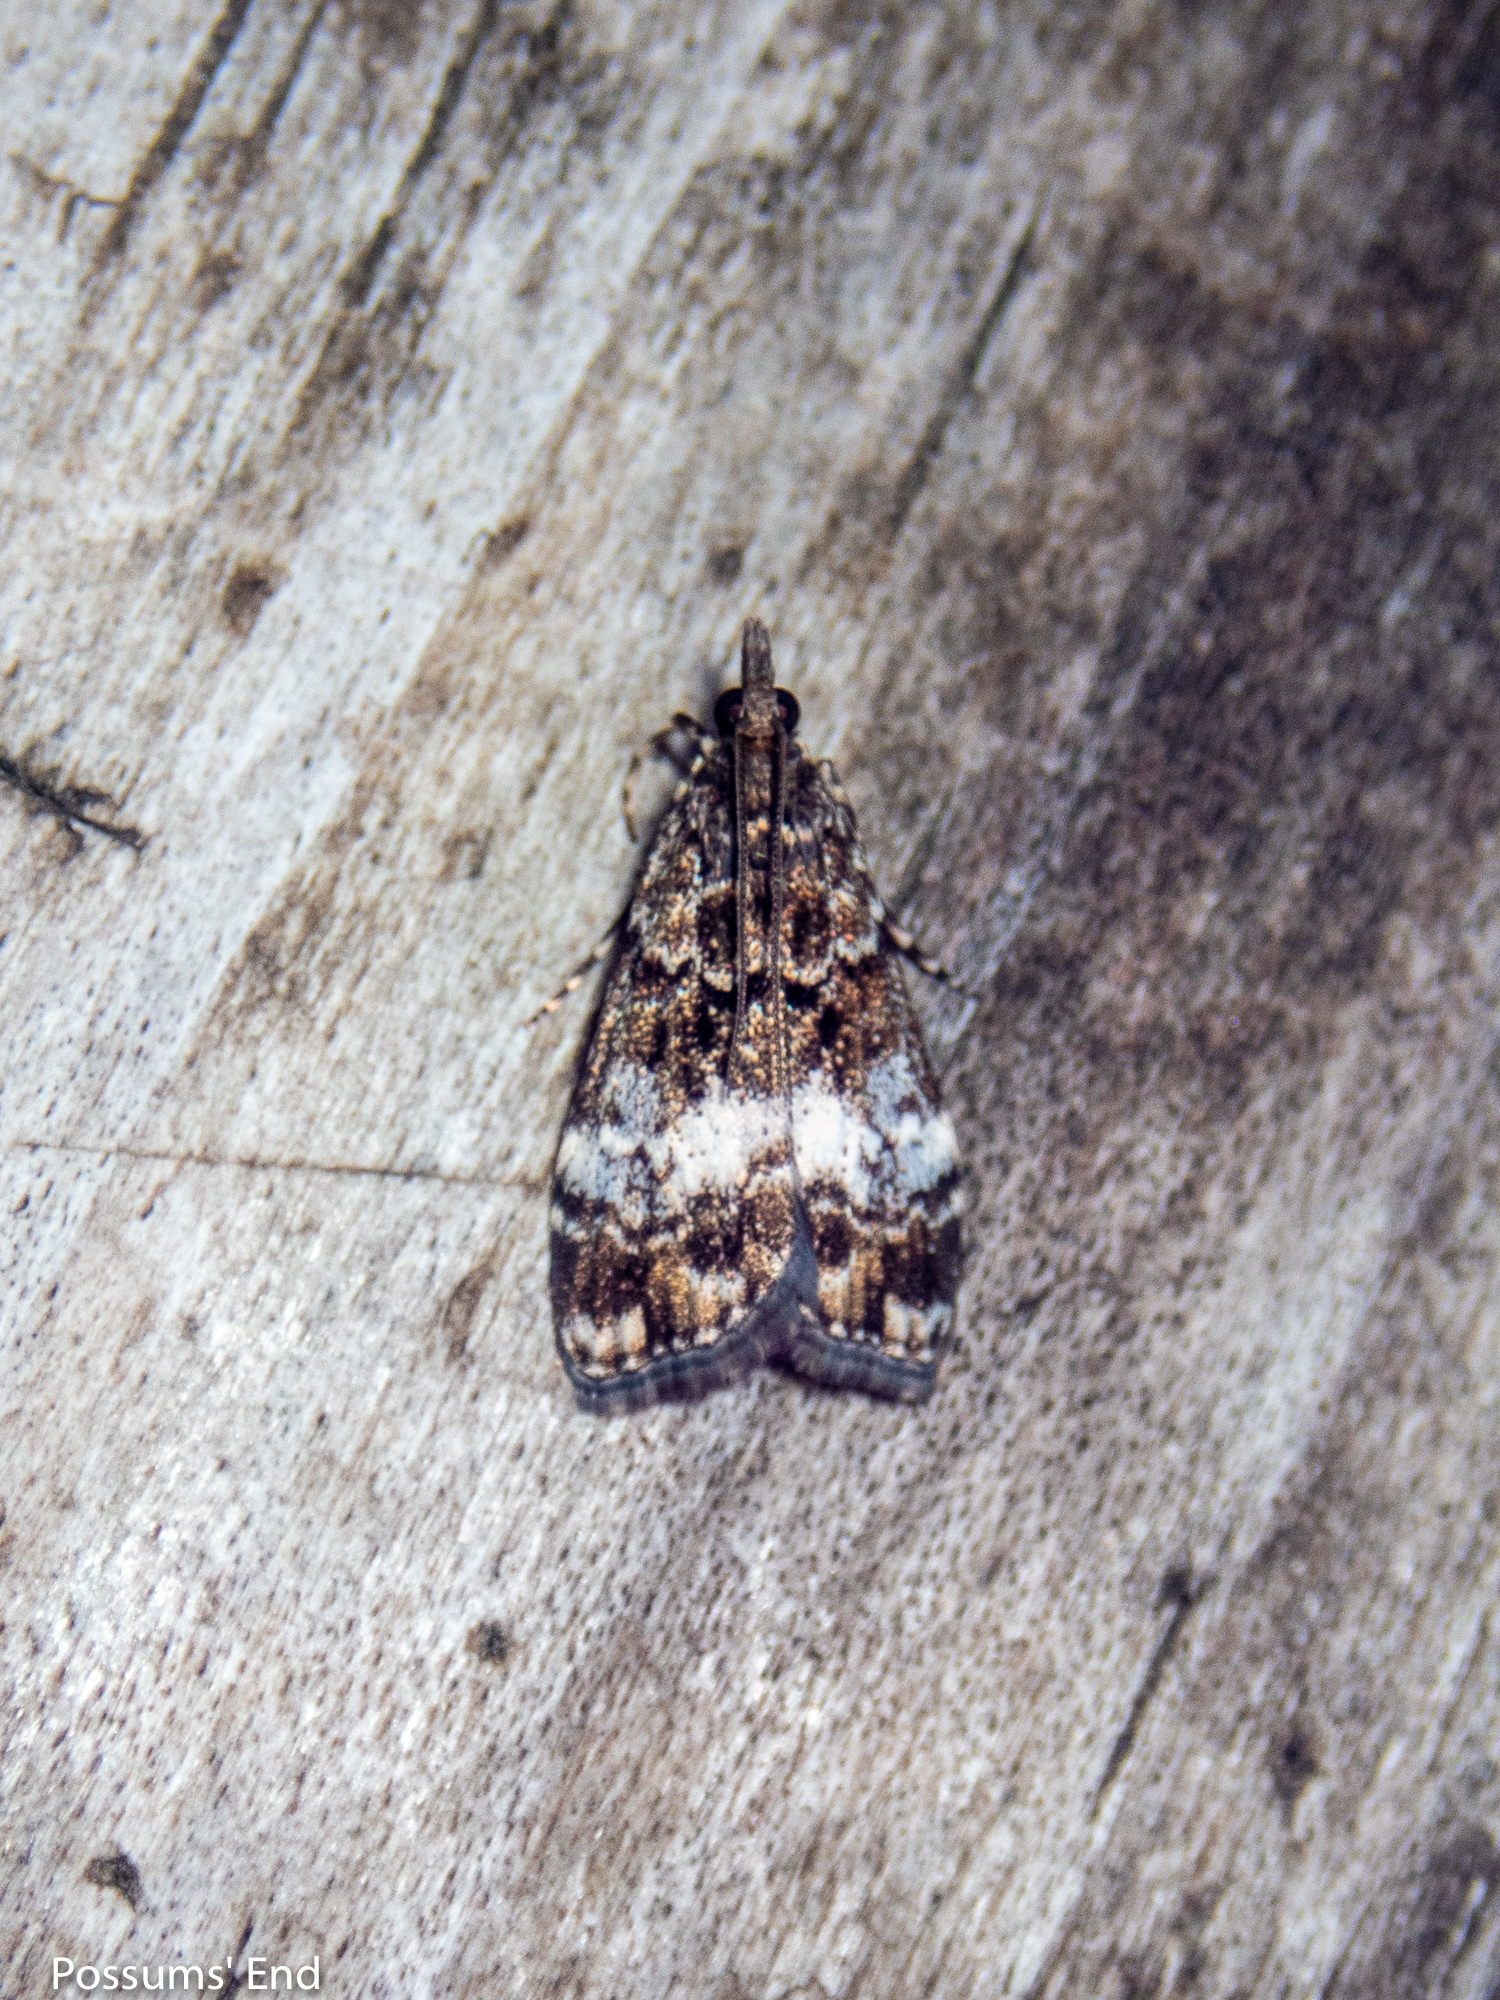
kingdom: Animalia
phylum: Arthropoda
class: Insecta
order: Lepidoptera
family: Crambidae
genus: Eudonia
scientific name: Eudonia dinodes
